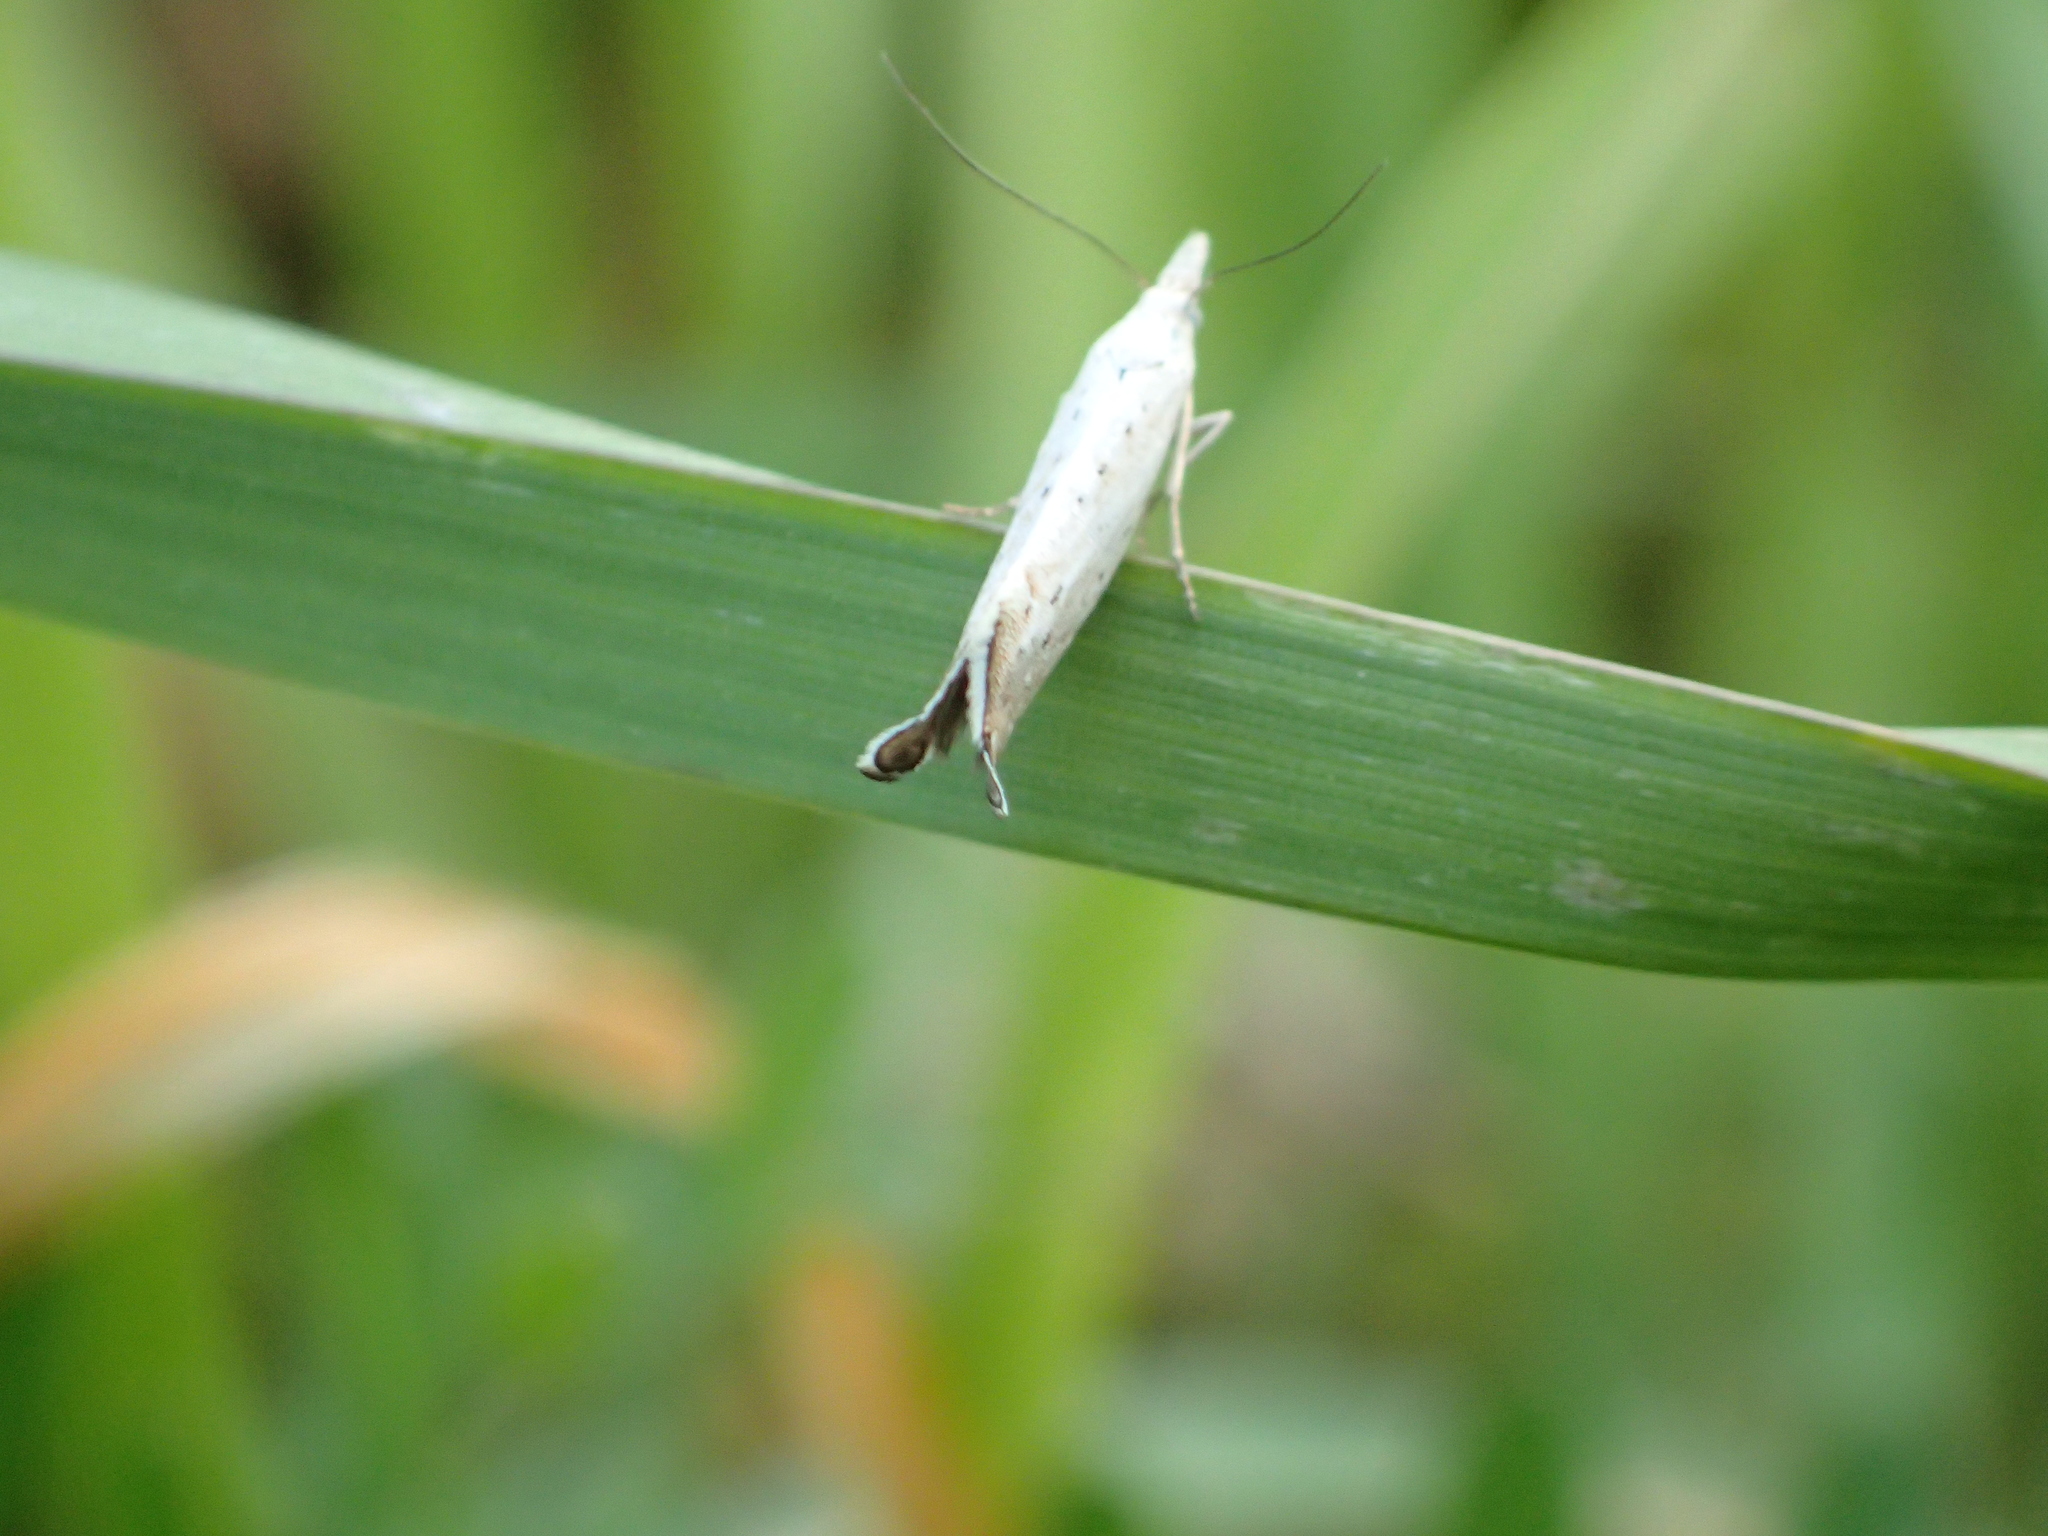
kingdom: Animalia
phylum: Arthropoda
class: Insecta
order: Lepidoptera
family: Glyphipterigidae
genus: Glyphipterix
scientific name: Glyphipterix achlyoessa
